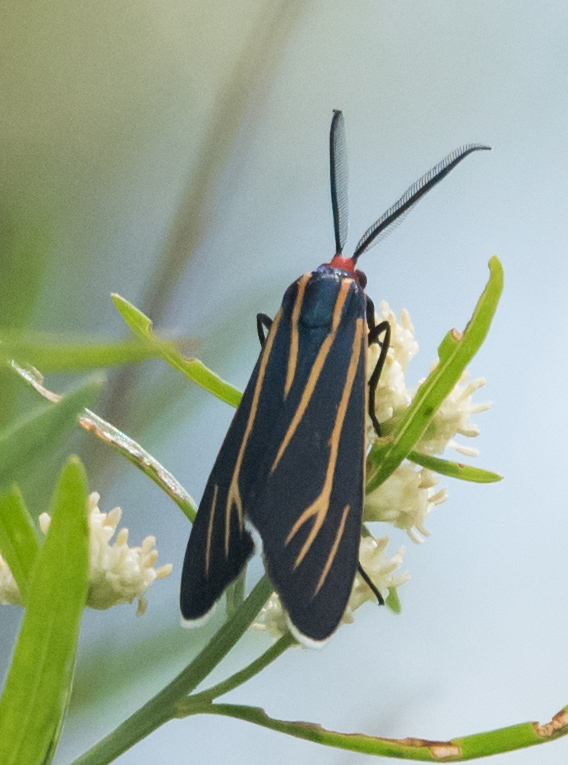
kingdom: Animalia
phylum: Arthropoda
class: Insecta
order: Lepidoptera
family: Erebidae
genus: Ctenucha
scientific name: Ctenucha venosa
